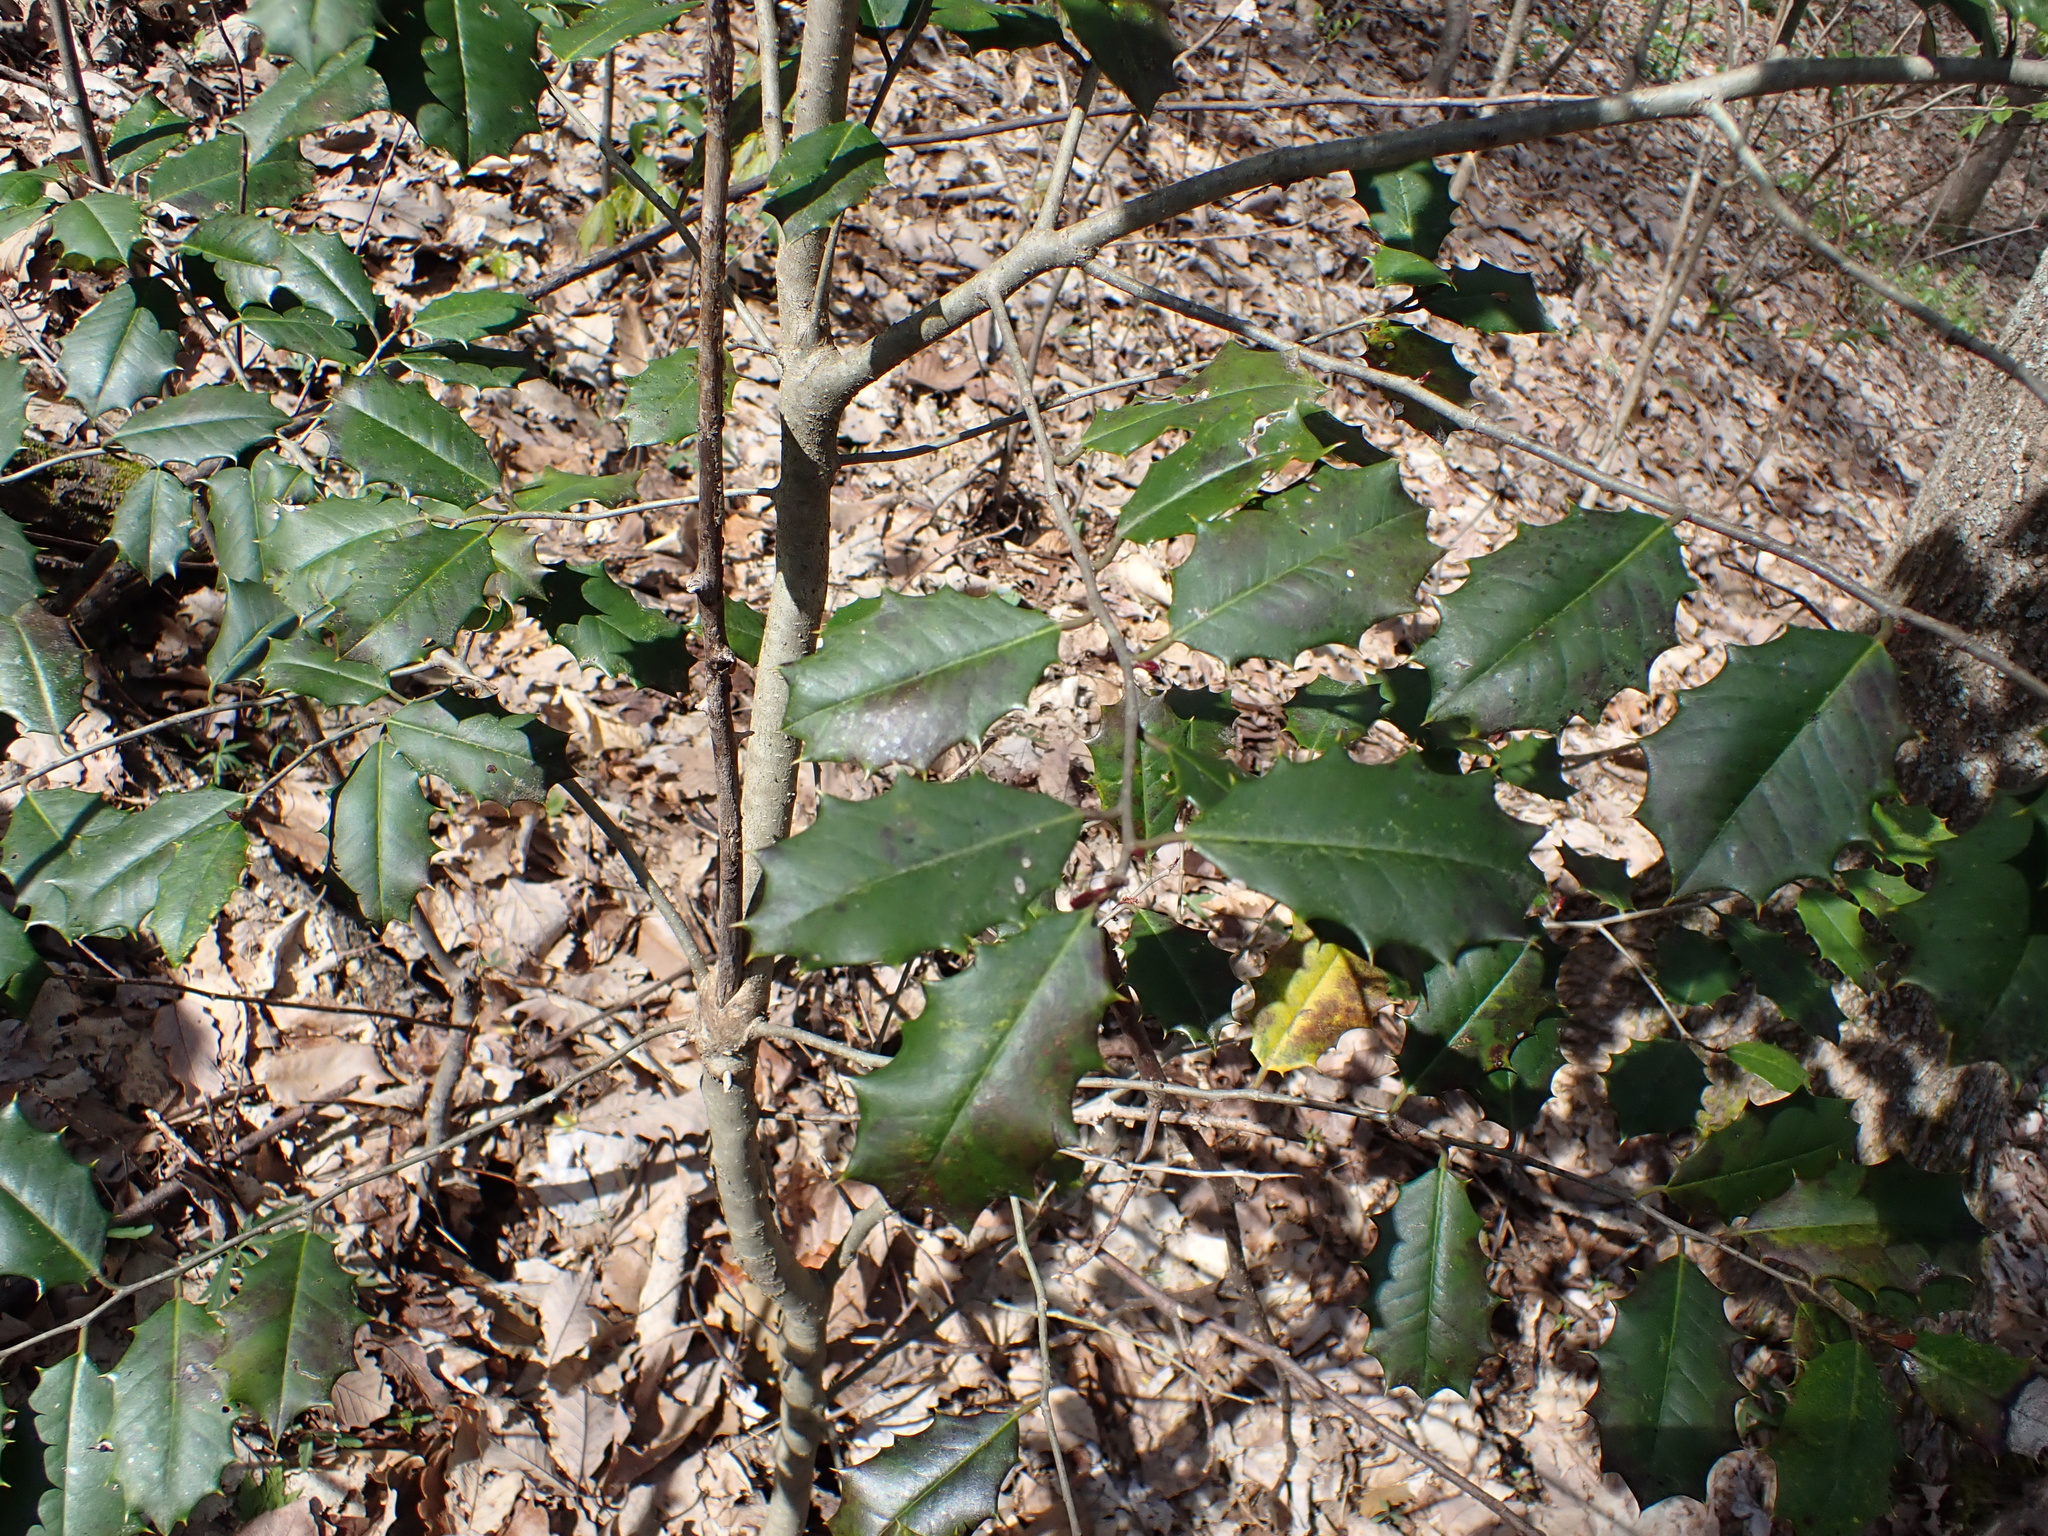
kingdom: Plantae
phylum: Tracheophyta
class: Magnoliopsida
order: Aquifoliales
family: Aquifoliaceae
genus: Ilex
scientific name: Ilex opaca
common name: American holly
